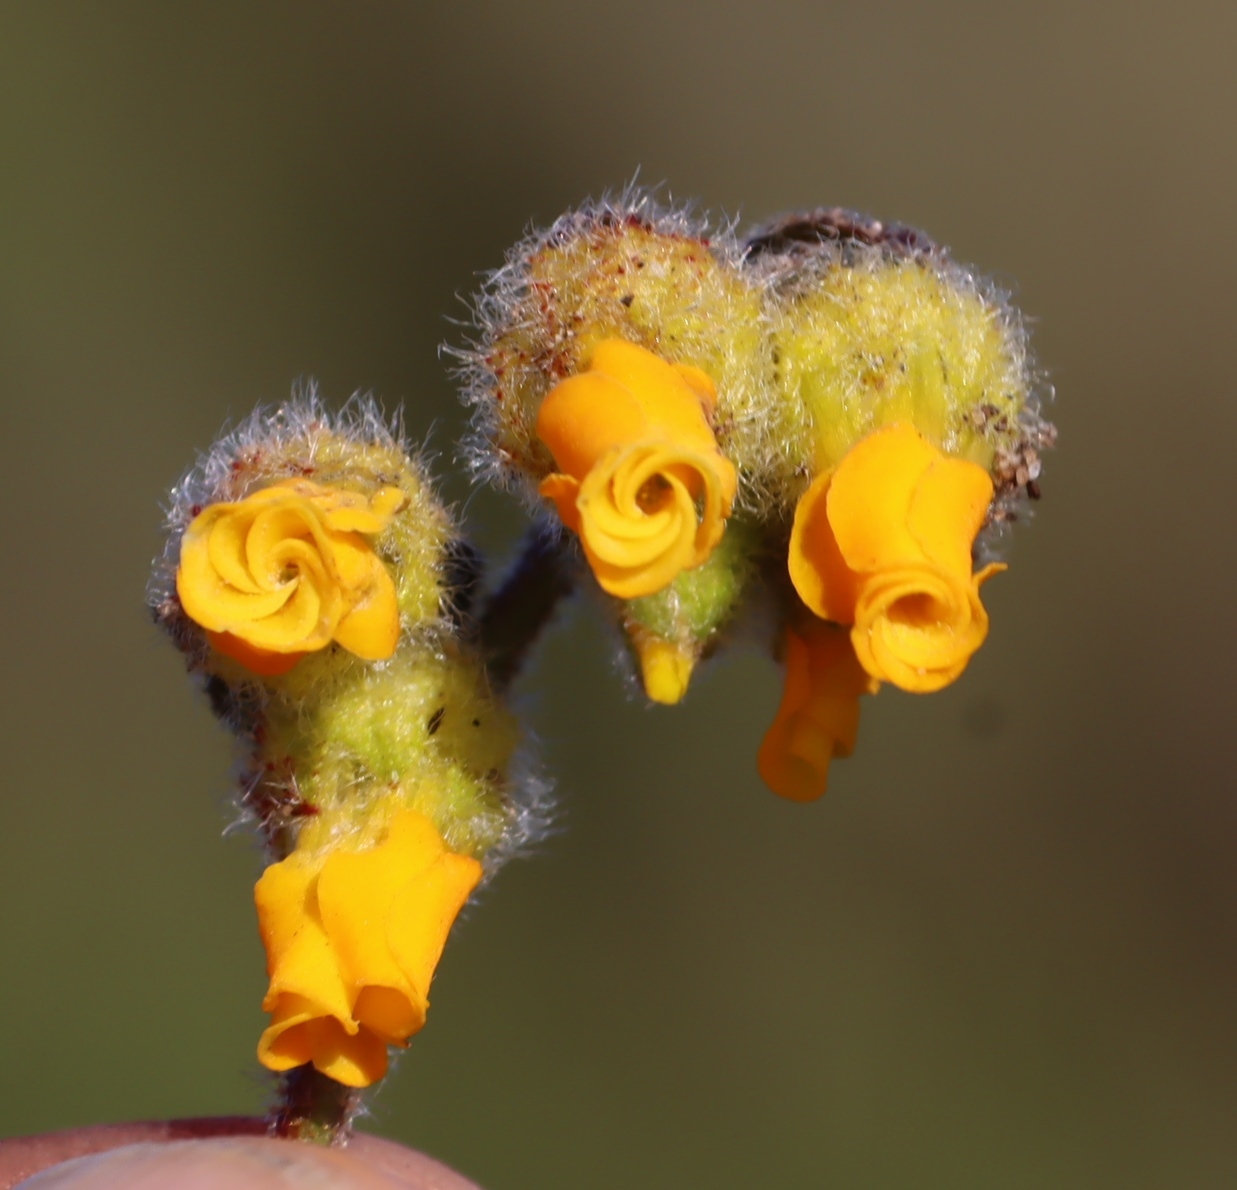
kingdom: Plantae
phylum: Tracheophyta
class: Magnoliopsida
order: Malvales
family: Malvaceae
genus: Hermannia
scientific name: Hermannia decumbens
